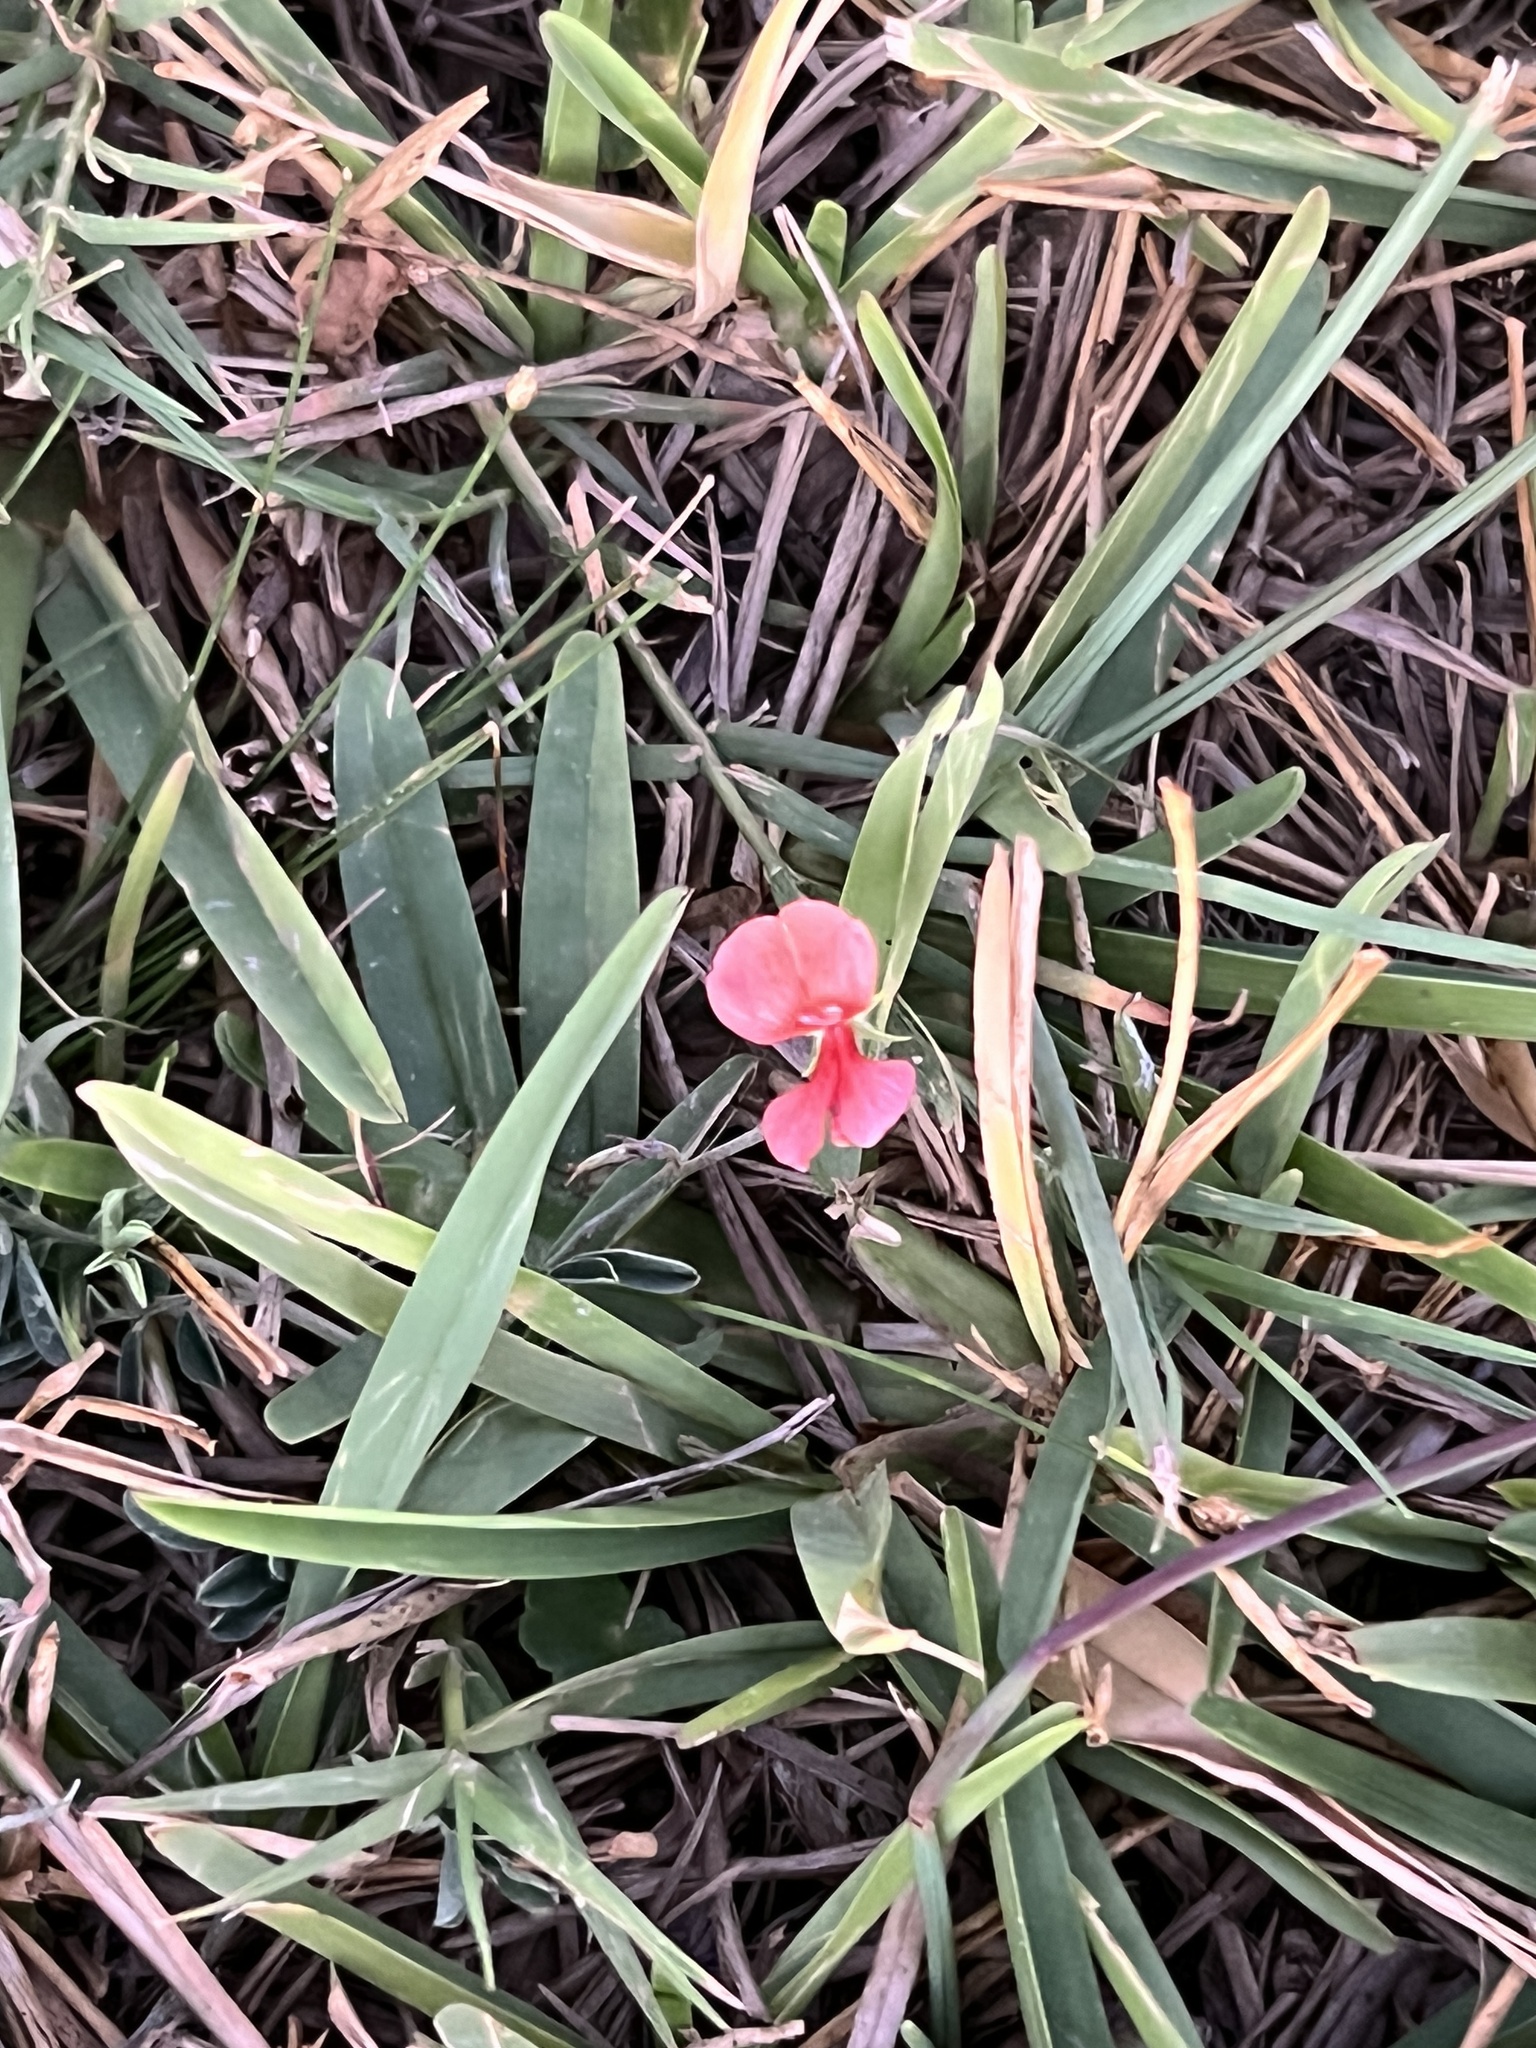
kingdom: Plantae
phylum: Tracheophyta
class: Magnoliopsida
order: Fabales
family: Fabaceae
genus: Indigofera
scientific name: Indigofera miniata
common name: Coast indigo
